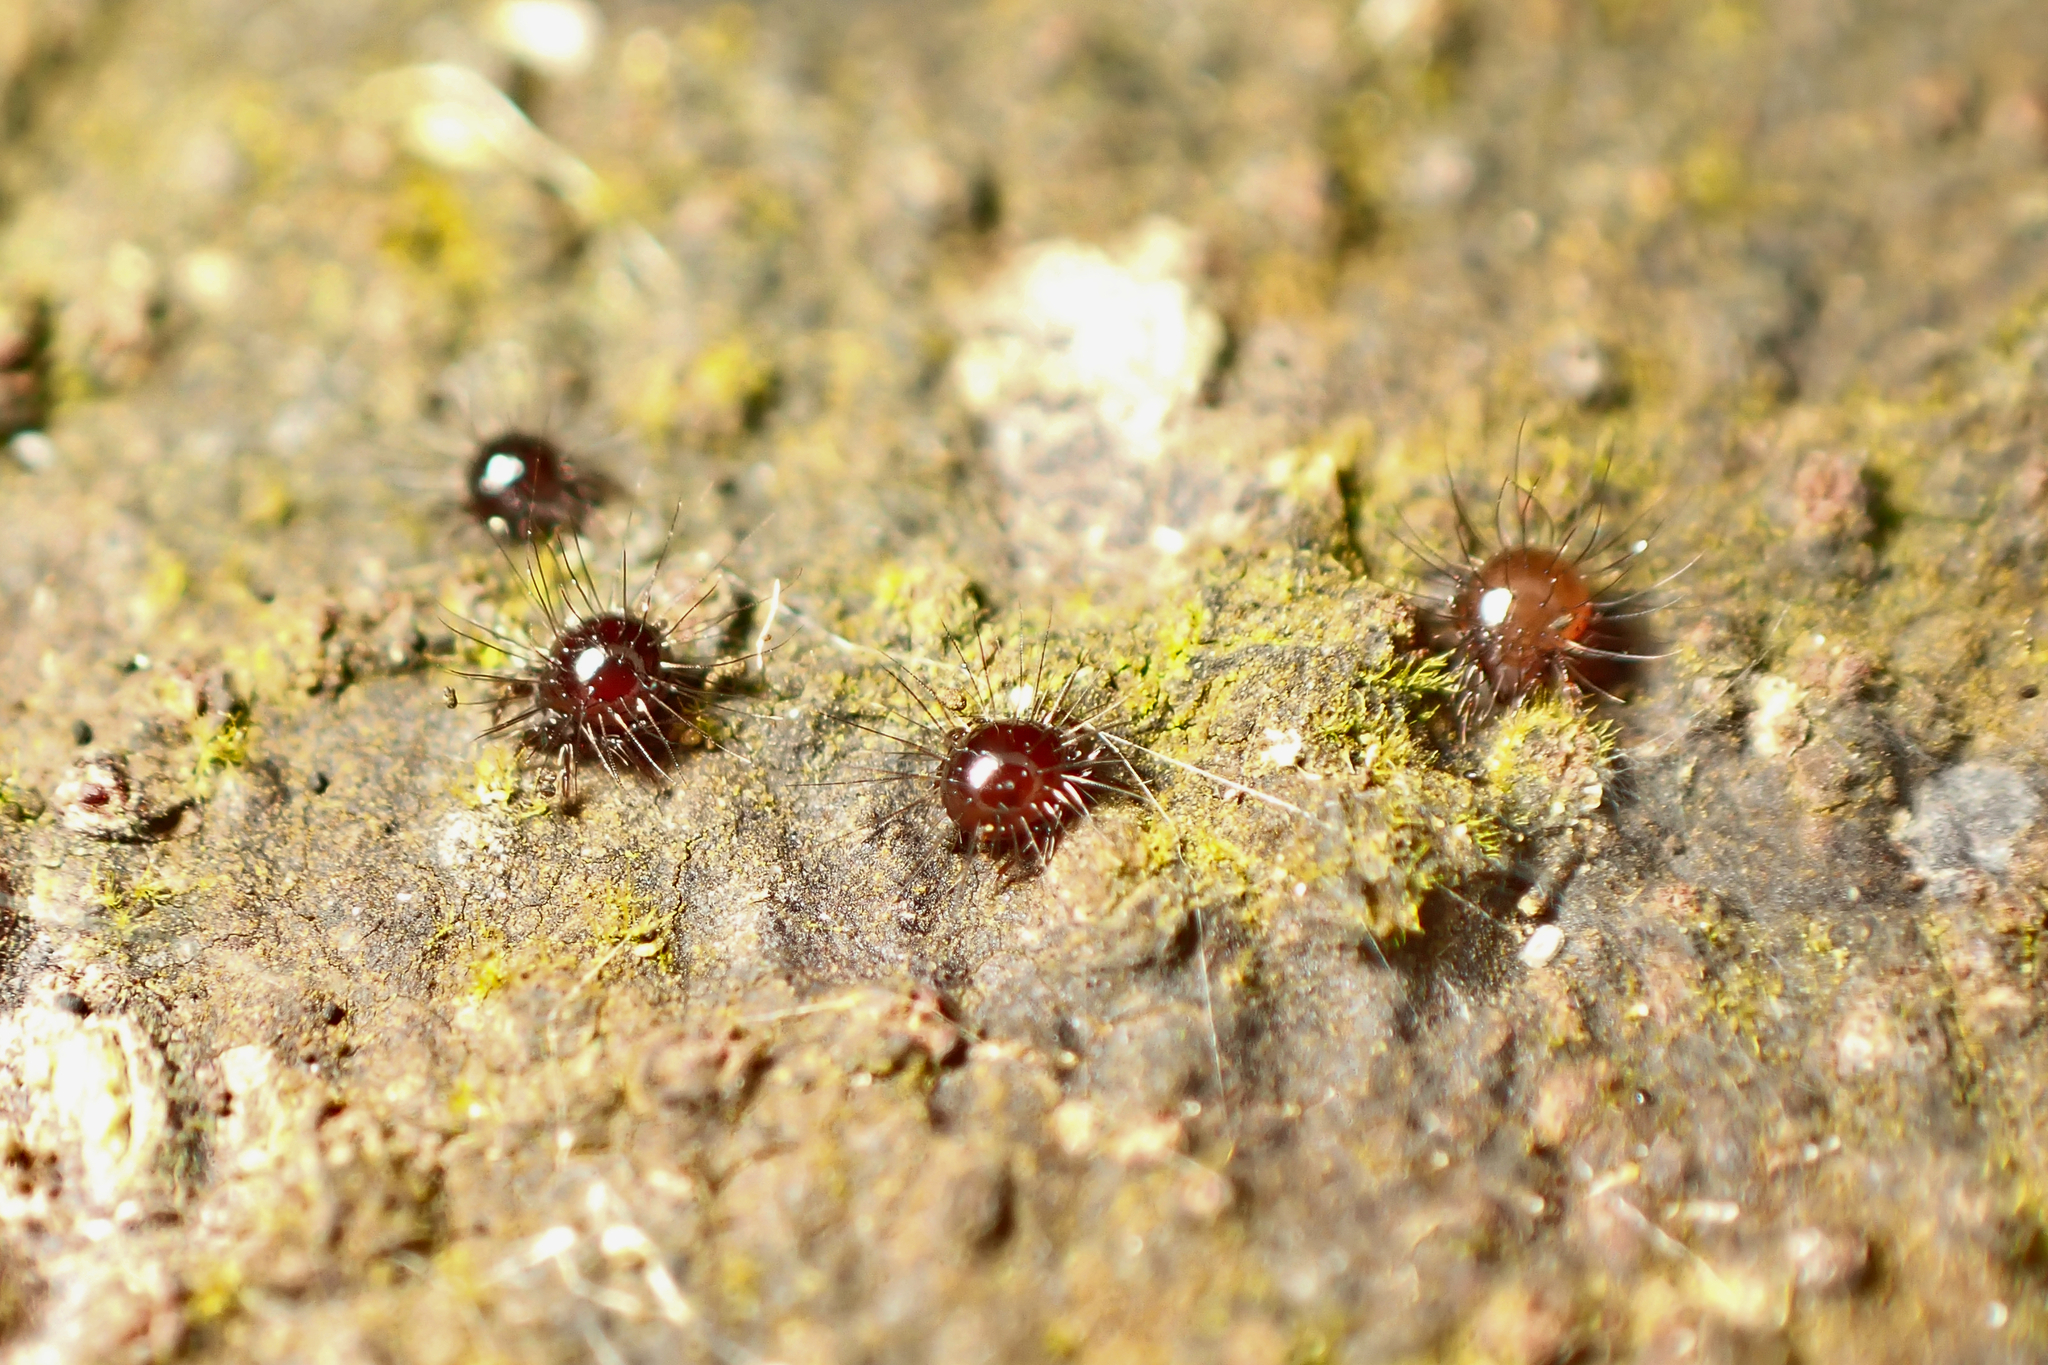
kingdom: Animalia
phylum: Arthropoda
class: Arachnida
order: Sarcoptiformes
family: Caloppiidae
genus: Neotrichozetes
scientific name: Neotrichozetes spinulosus
